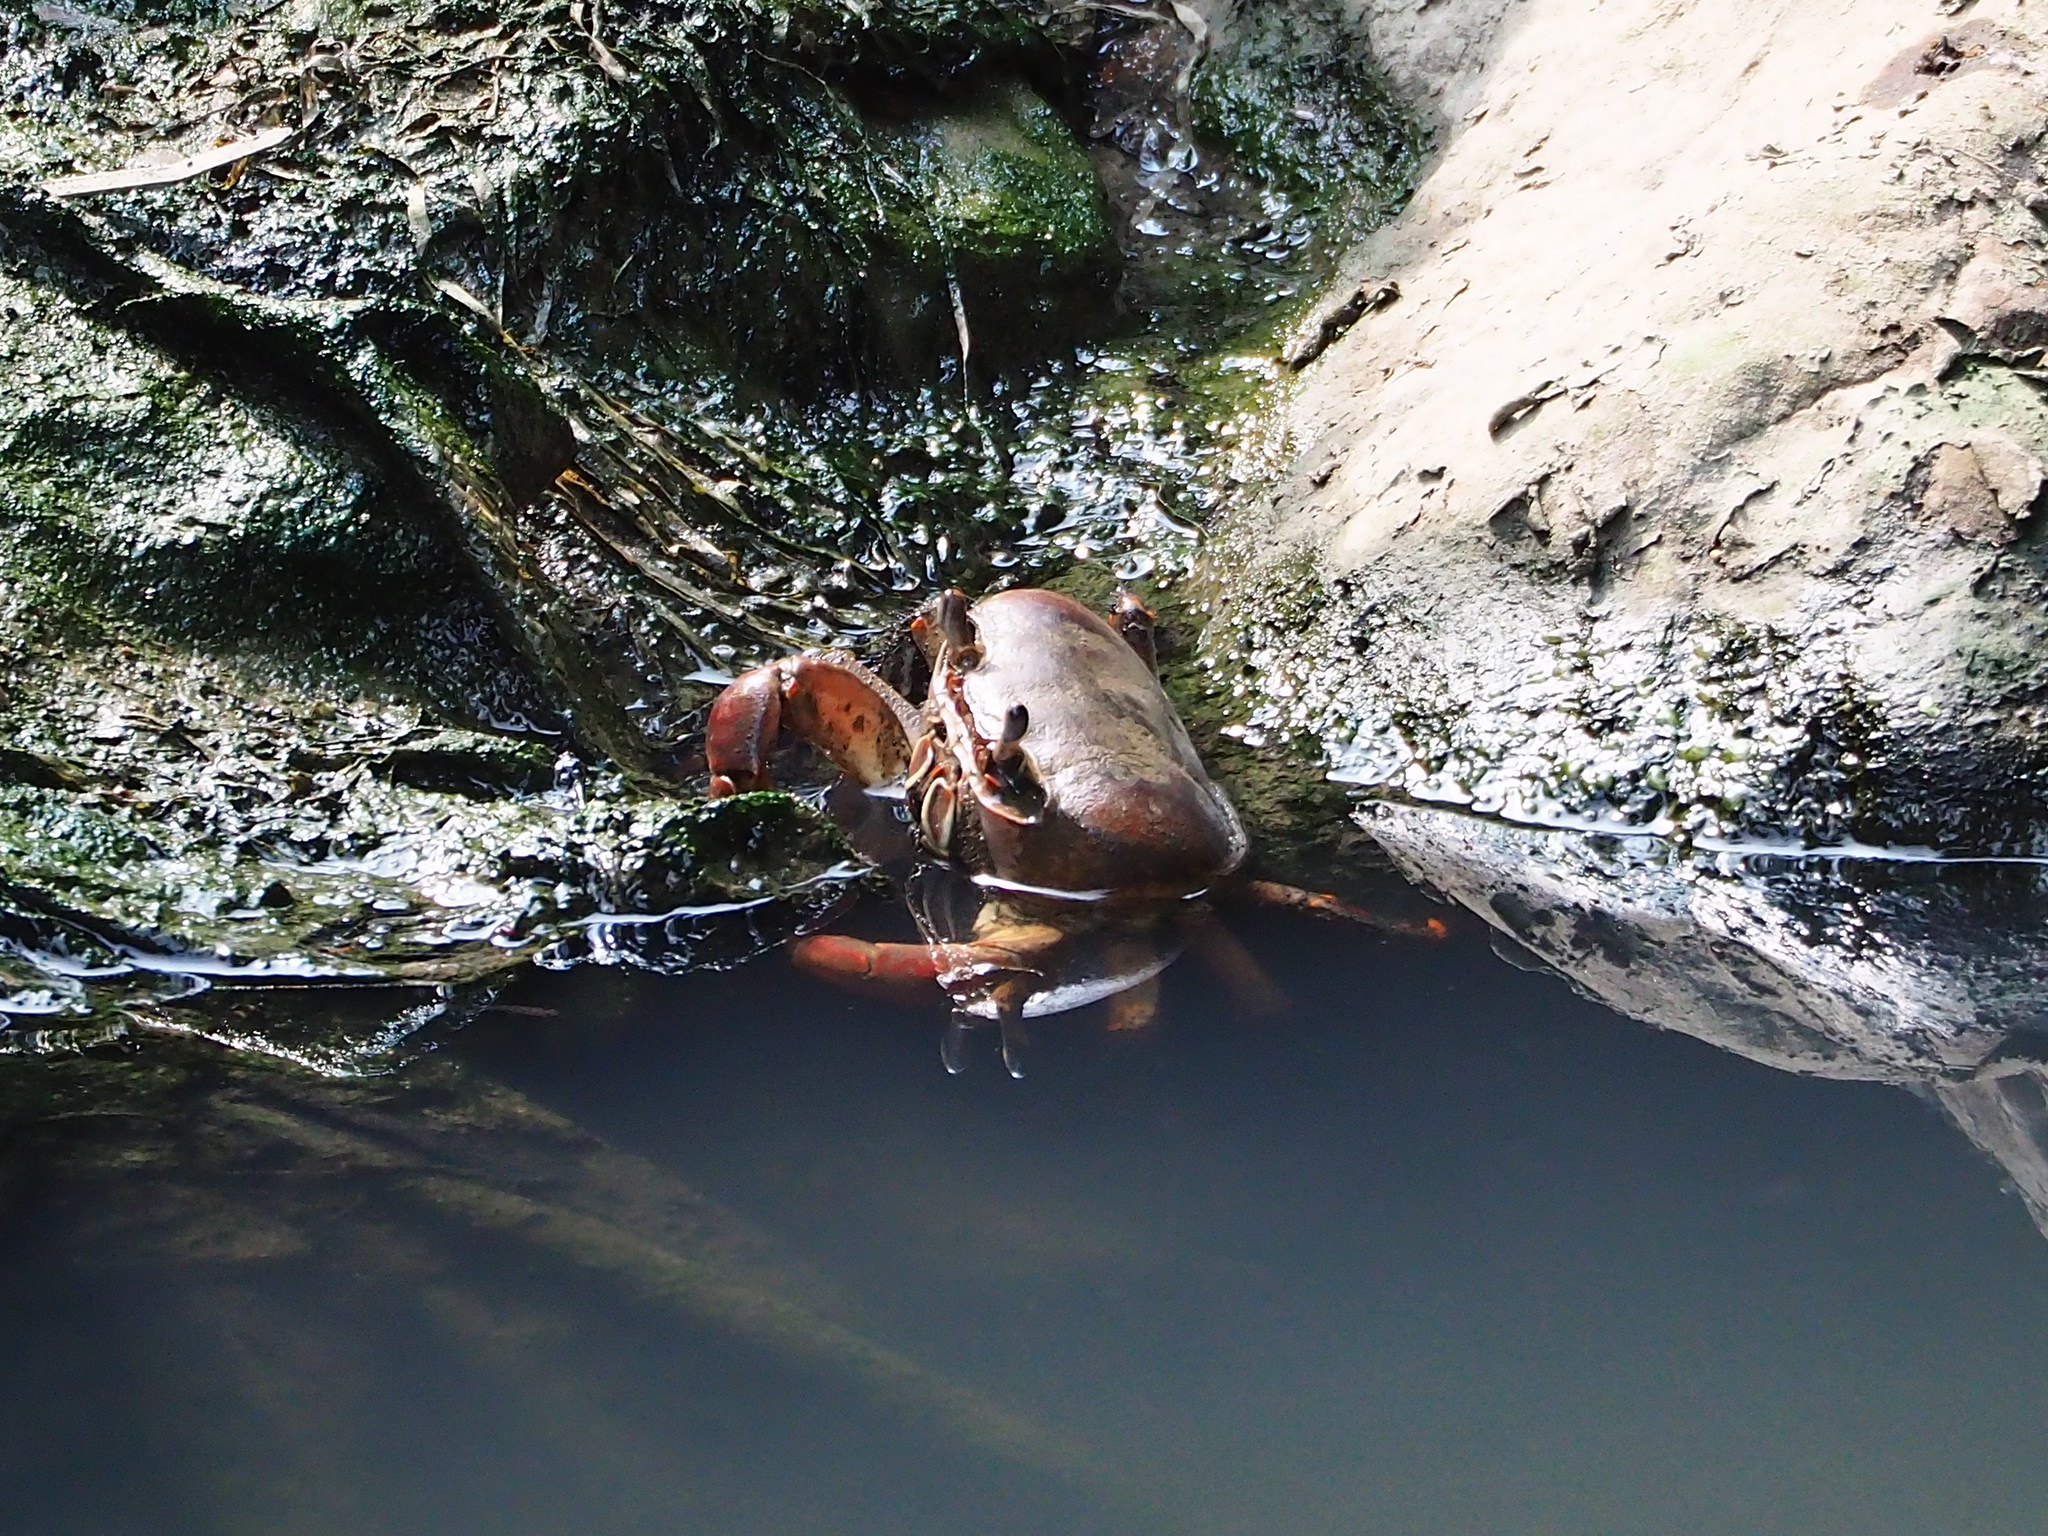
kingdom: Animalia
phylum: Arthropoda
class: Malacostraca
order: Decapoda
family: Gecarcinidae
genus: Cardisoma
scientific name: Cardisoma carnifex
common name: Brown land crab
